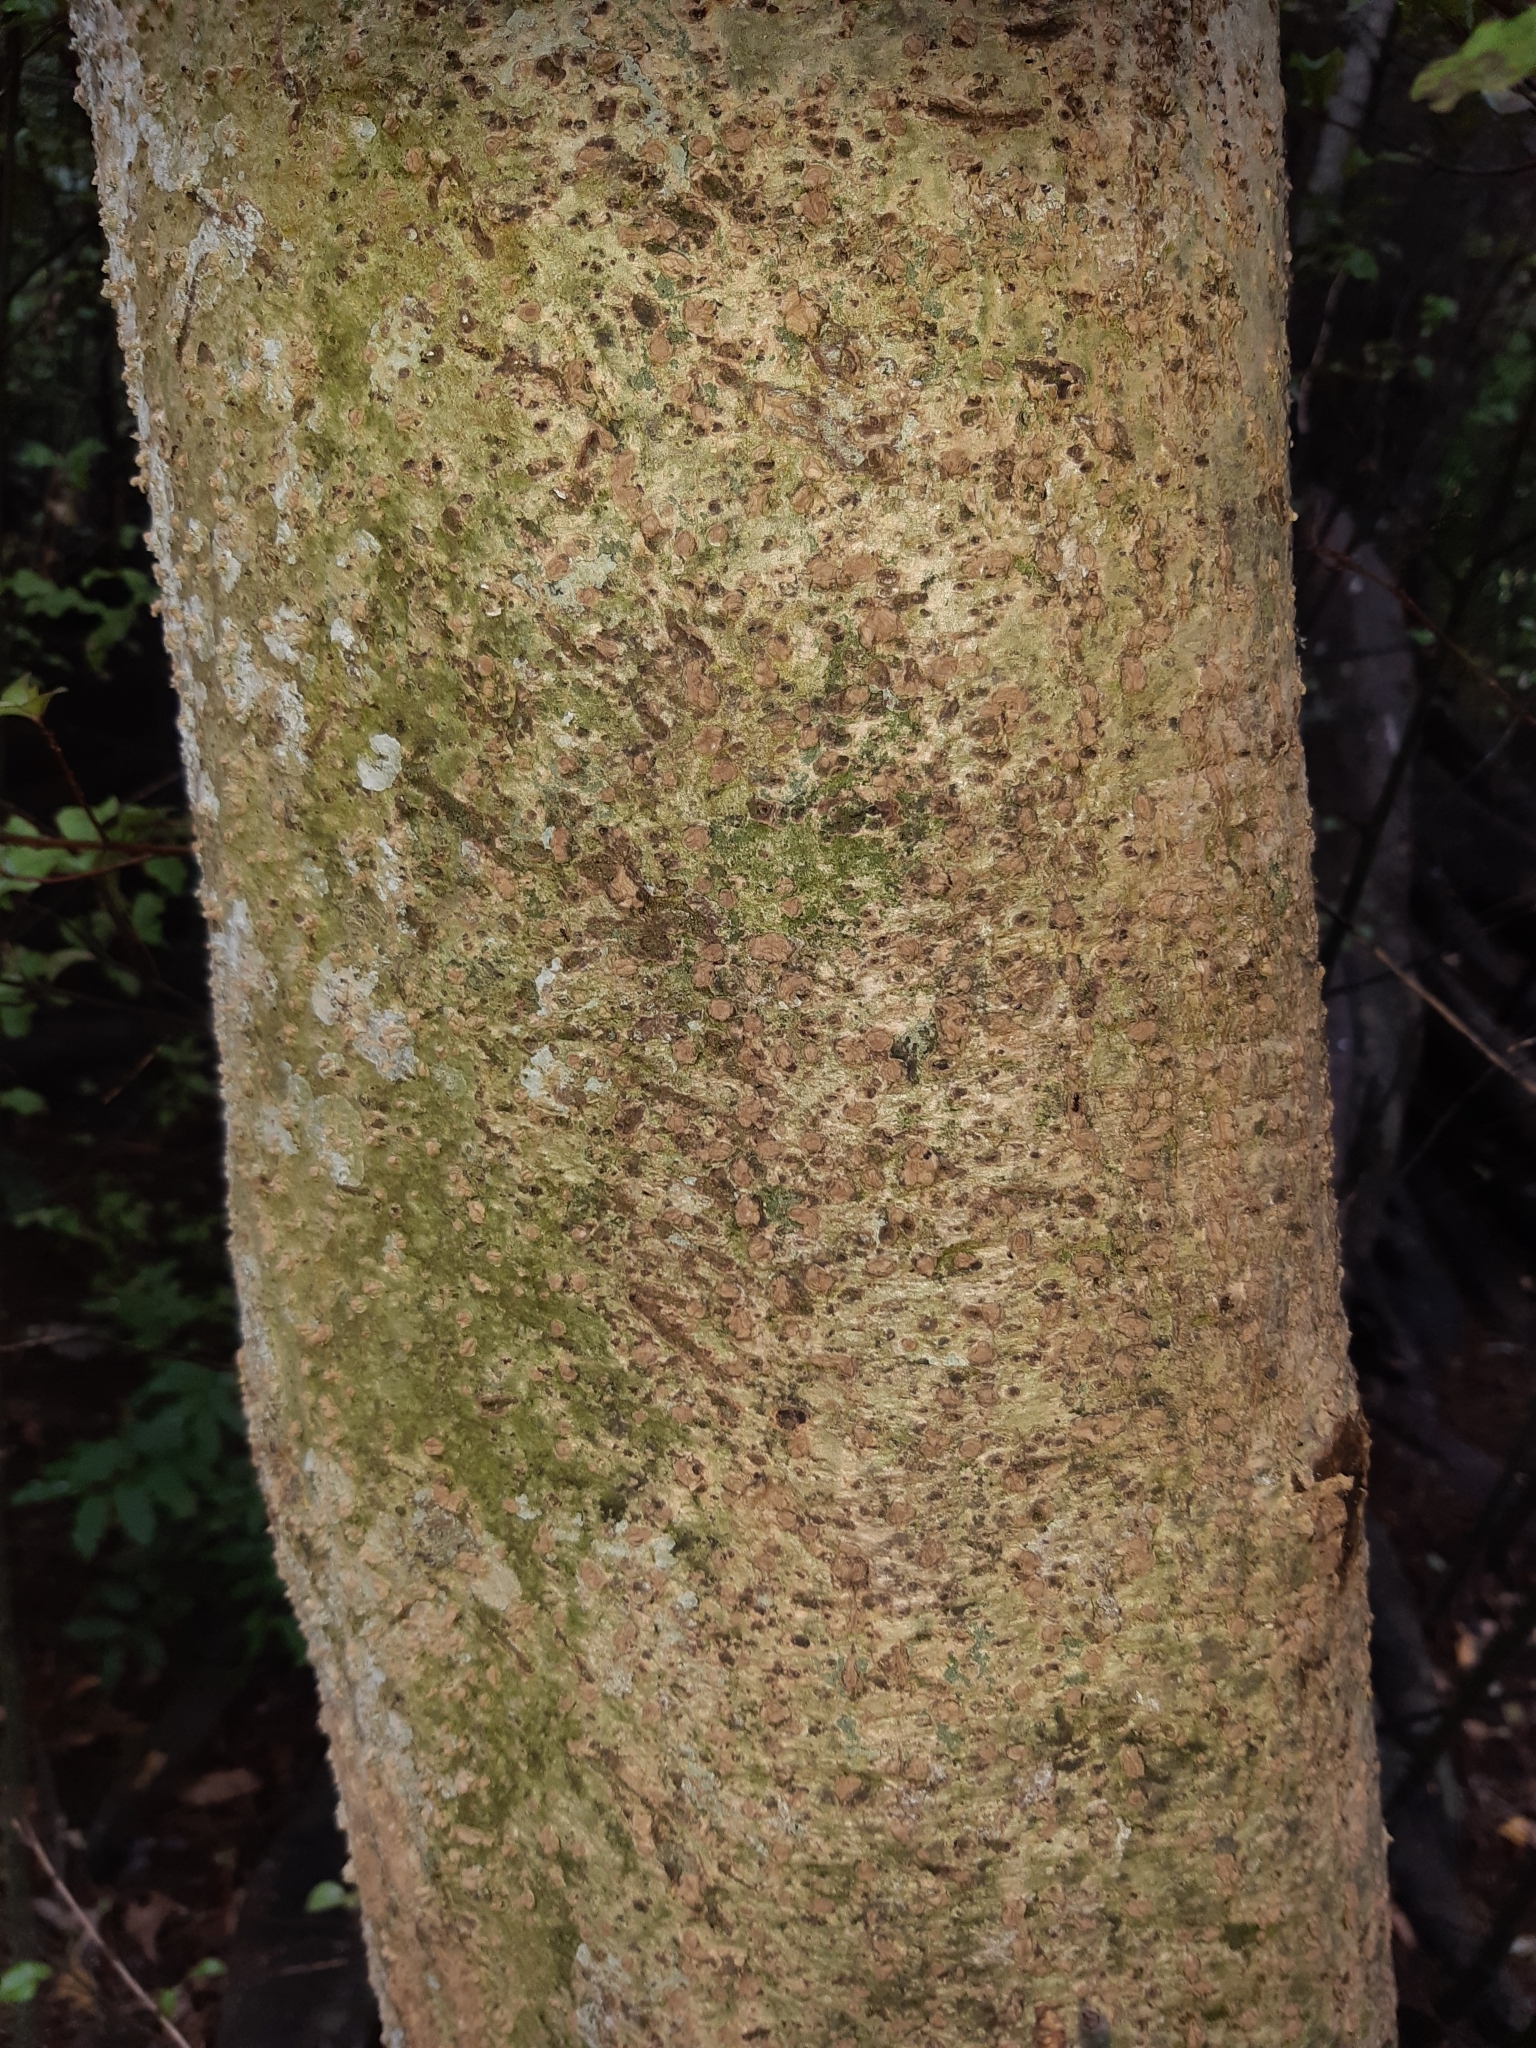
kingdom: Plantae
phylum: Tracheophyta
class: Magnoliopsida
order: Laurales
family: Atherospermataceae
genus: Laurelia
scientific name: Laurelia novae-zelandiae
